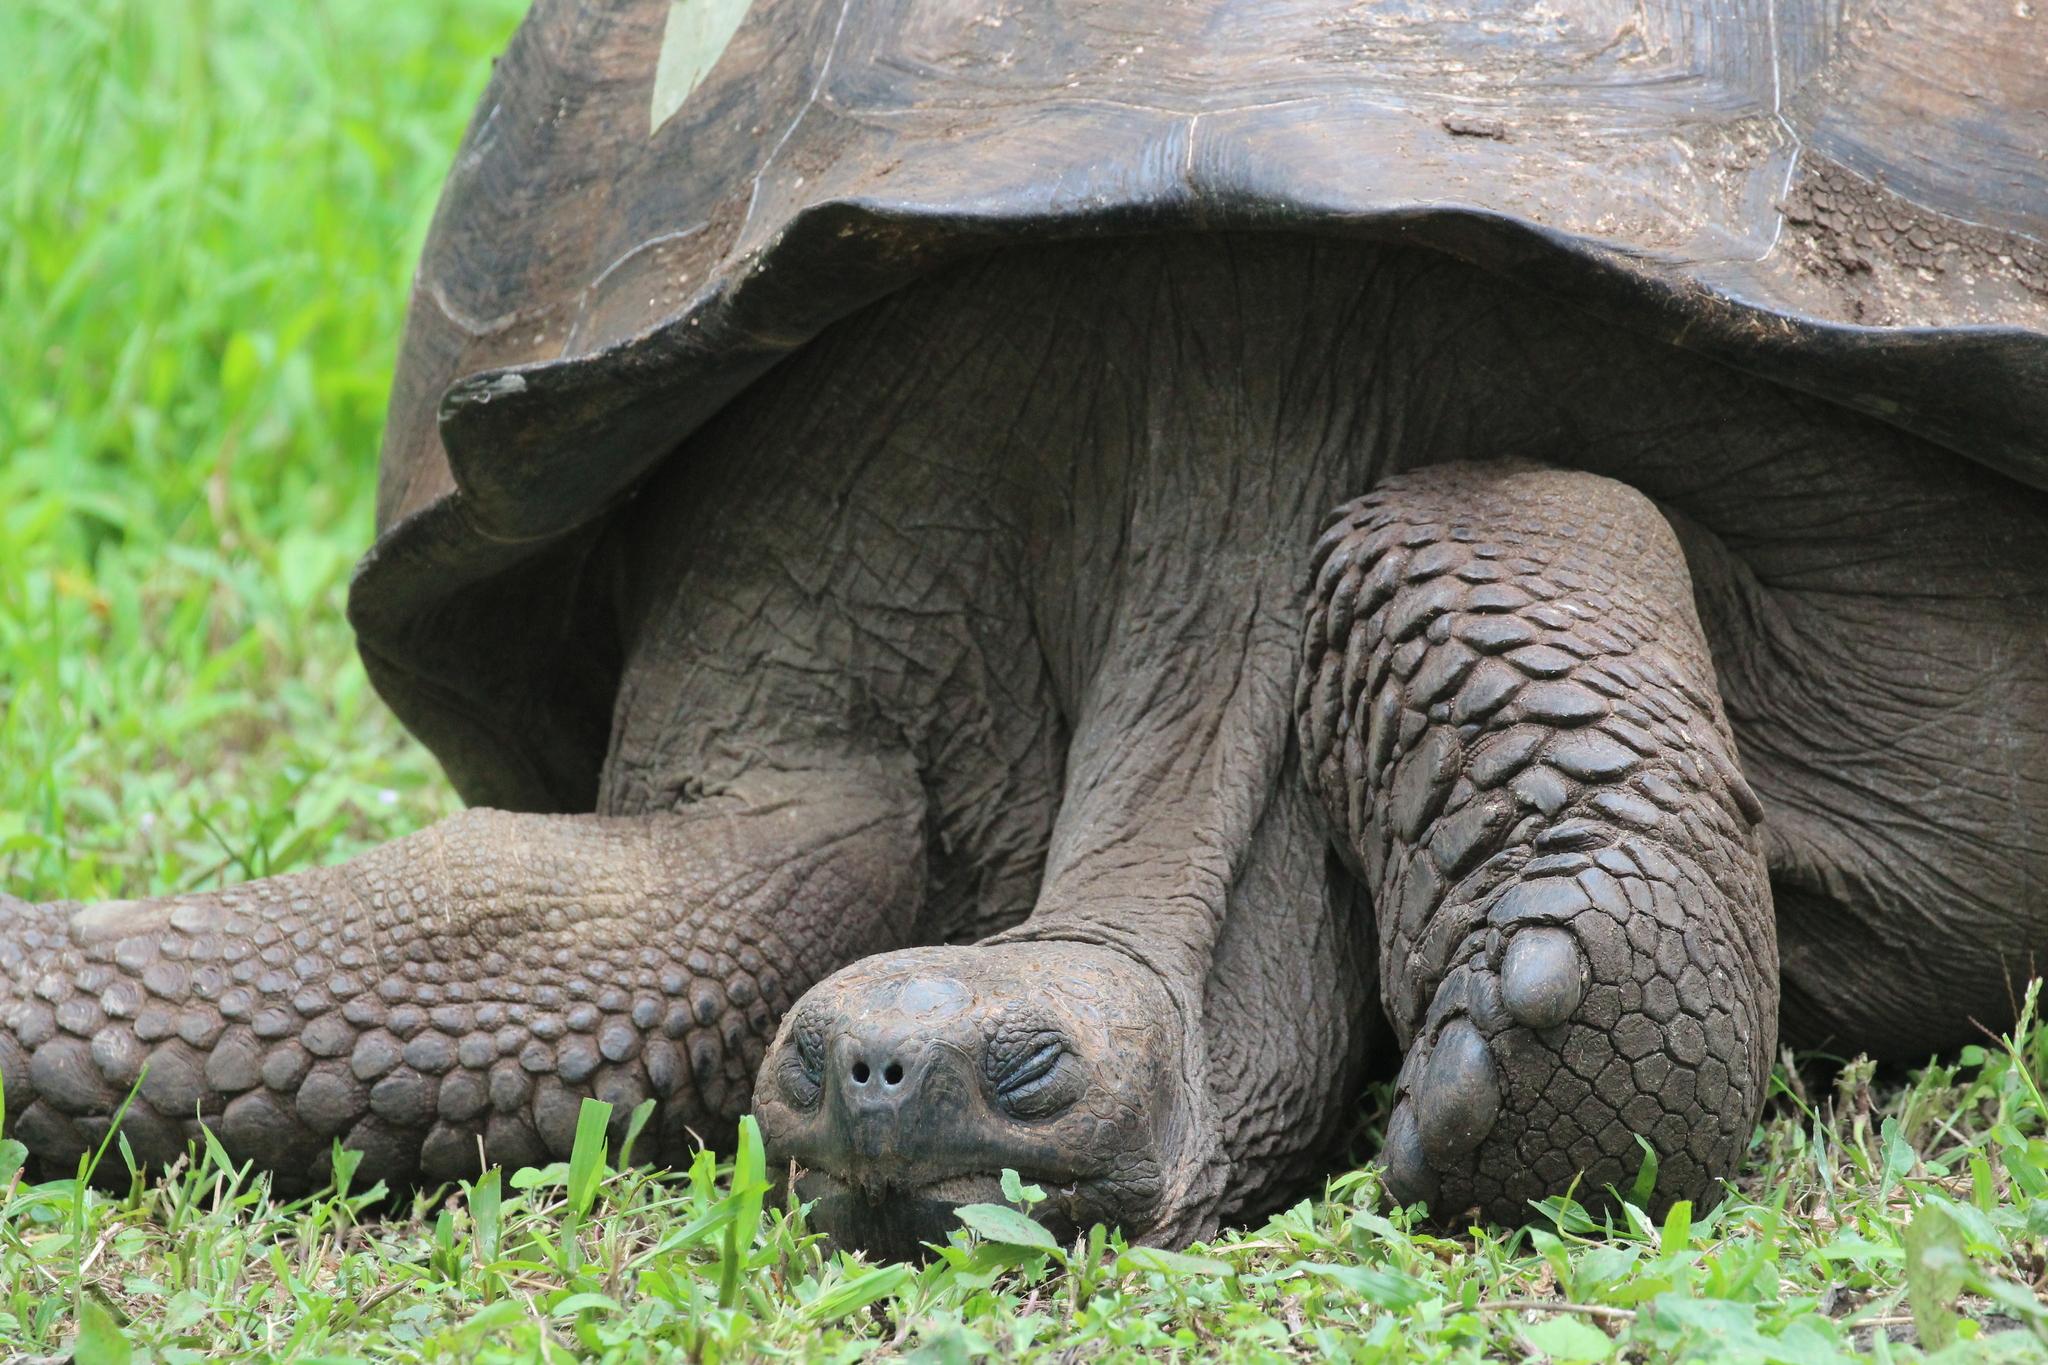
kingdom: Animalia
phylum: Chordata
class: Testudines
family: Testudinidae
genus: Chelonoidis
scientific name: Chelonoidis niger
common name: Charles island giant tortoise
